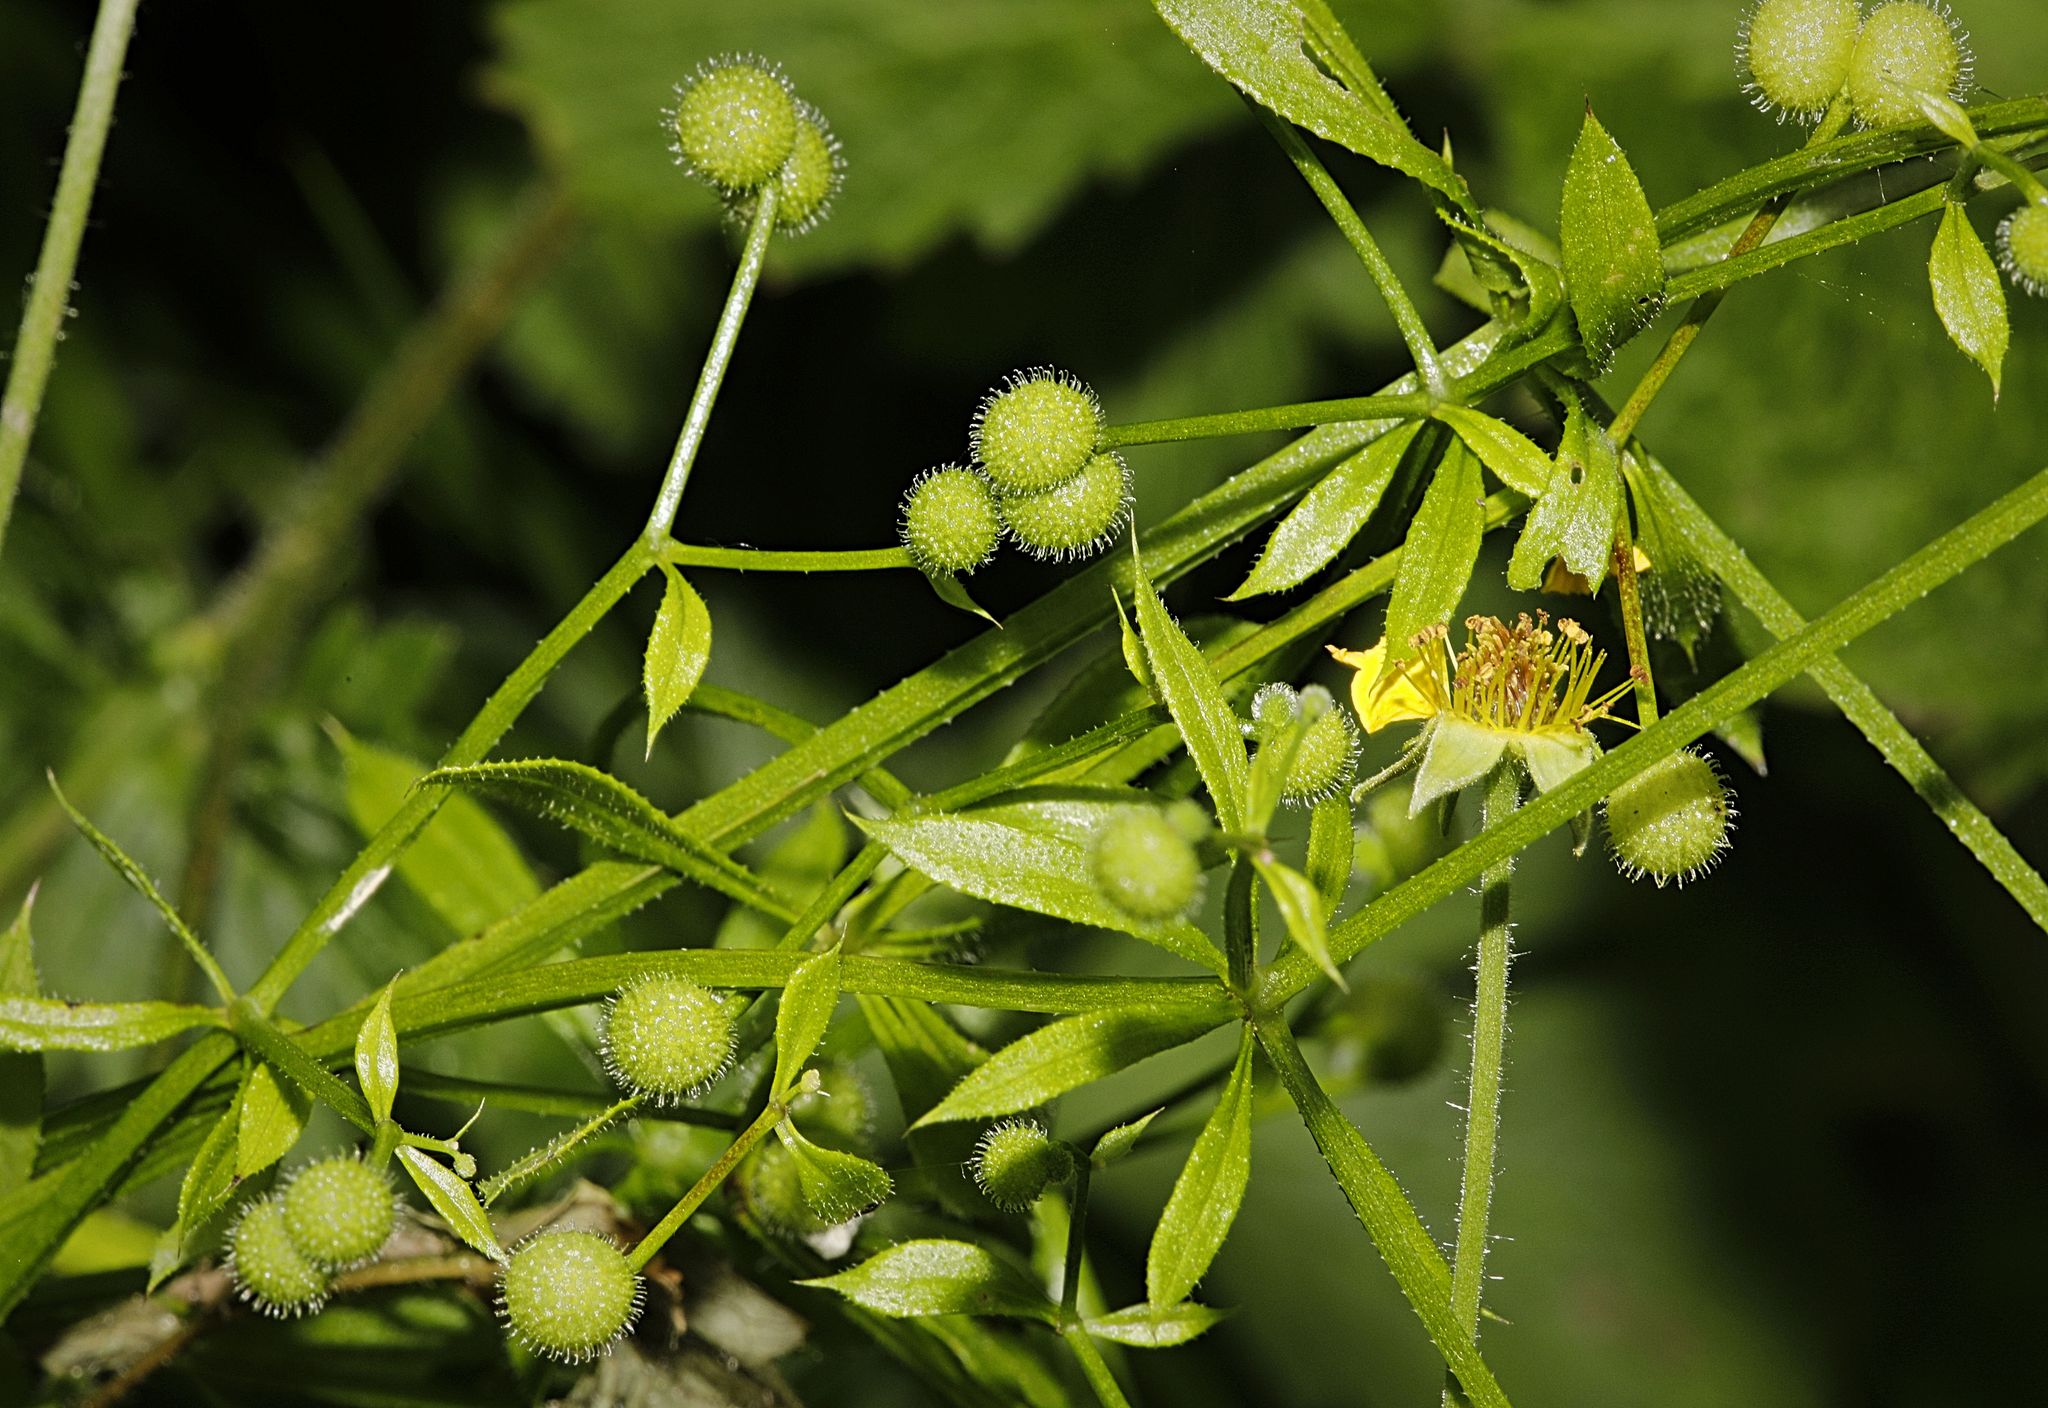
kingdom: Plantae
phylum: Tracheophyta
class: Magnoliopsida
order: Gentianales
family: Rubiaceae
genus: Galium
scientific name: Galium aparine
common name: Cleavers
